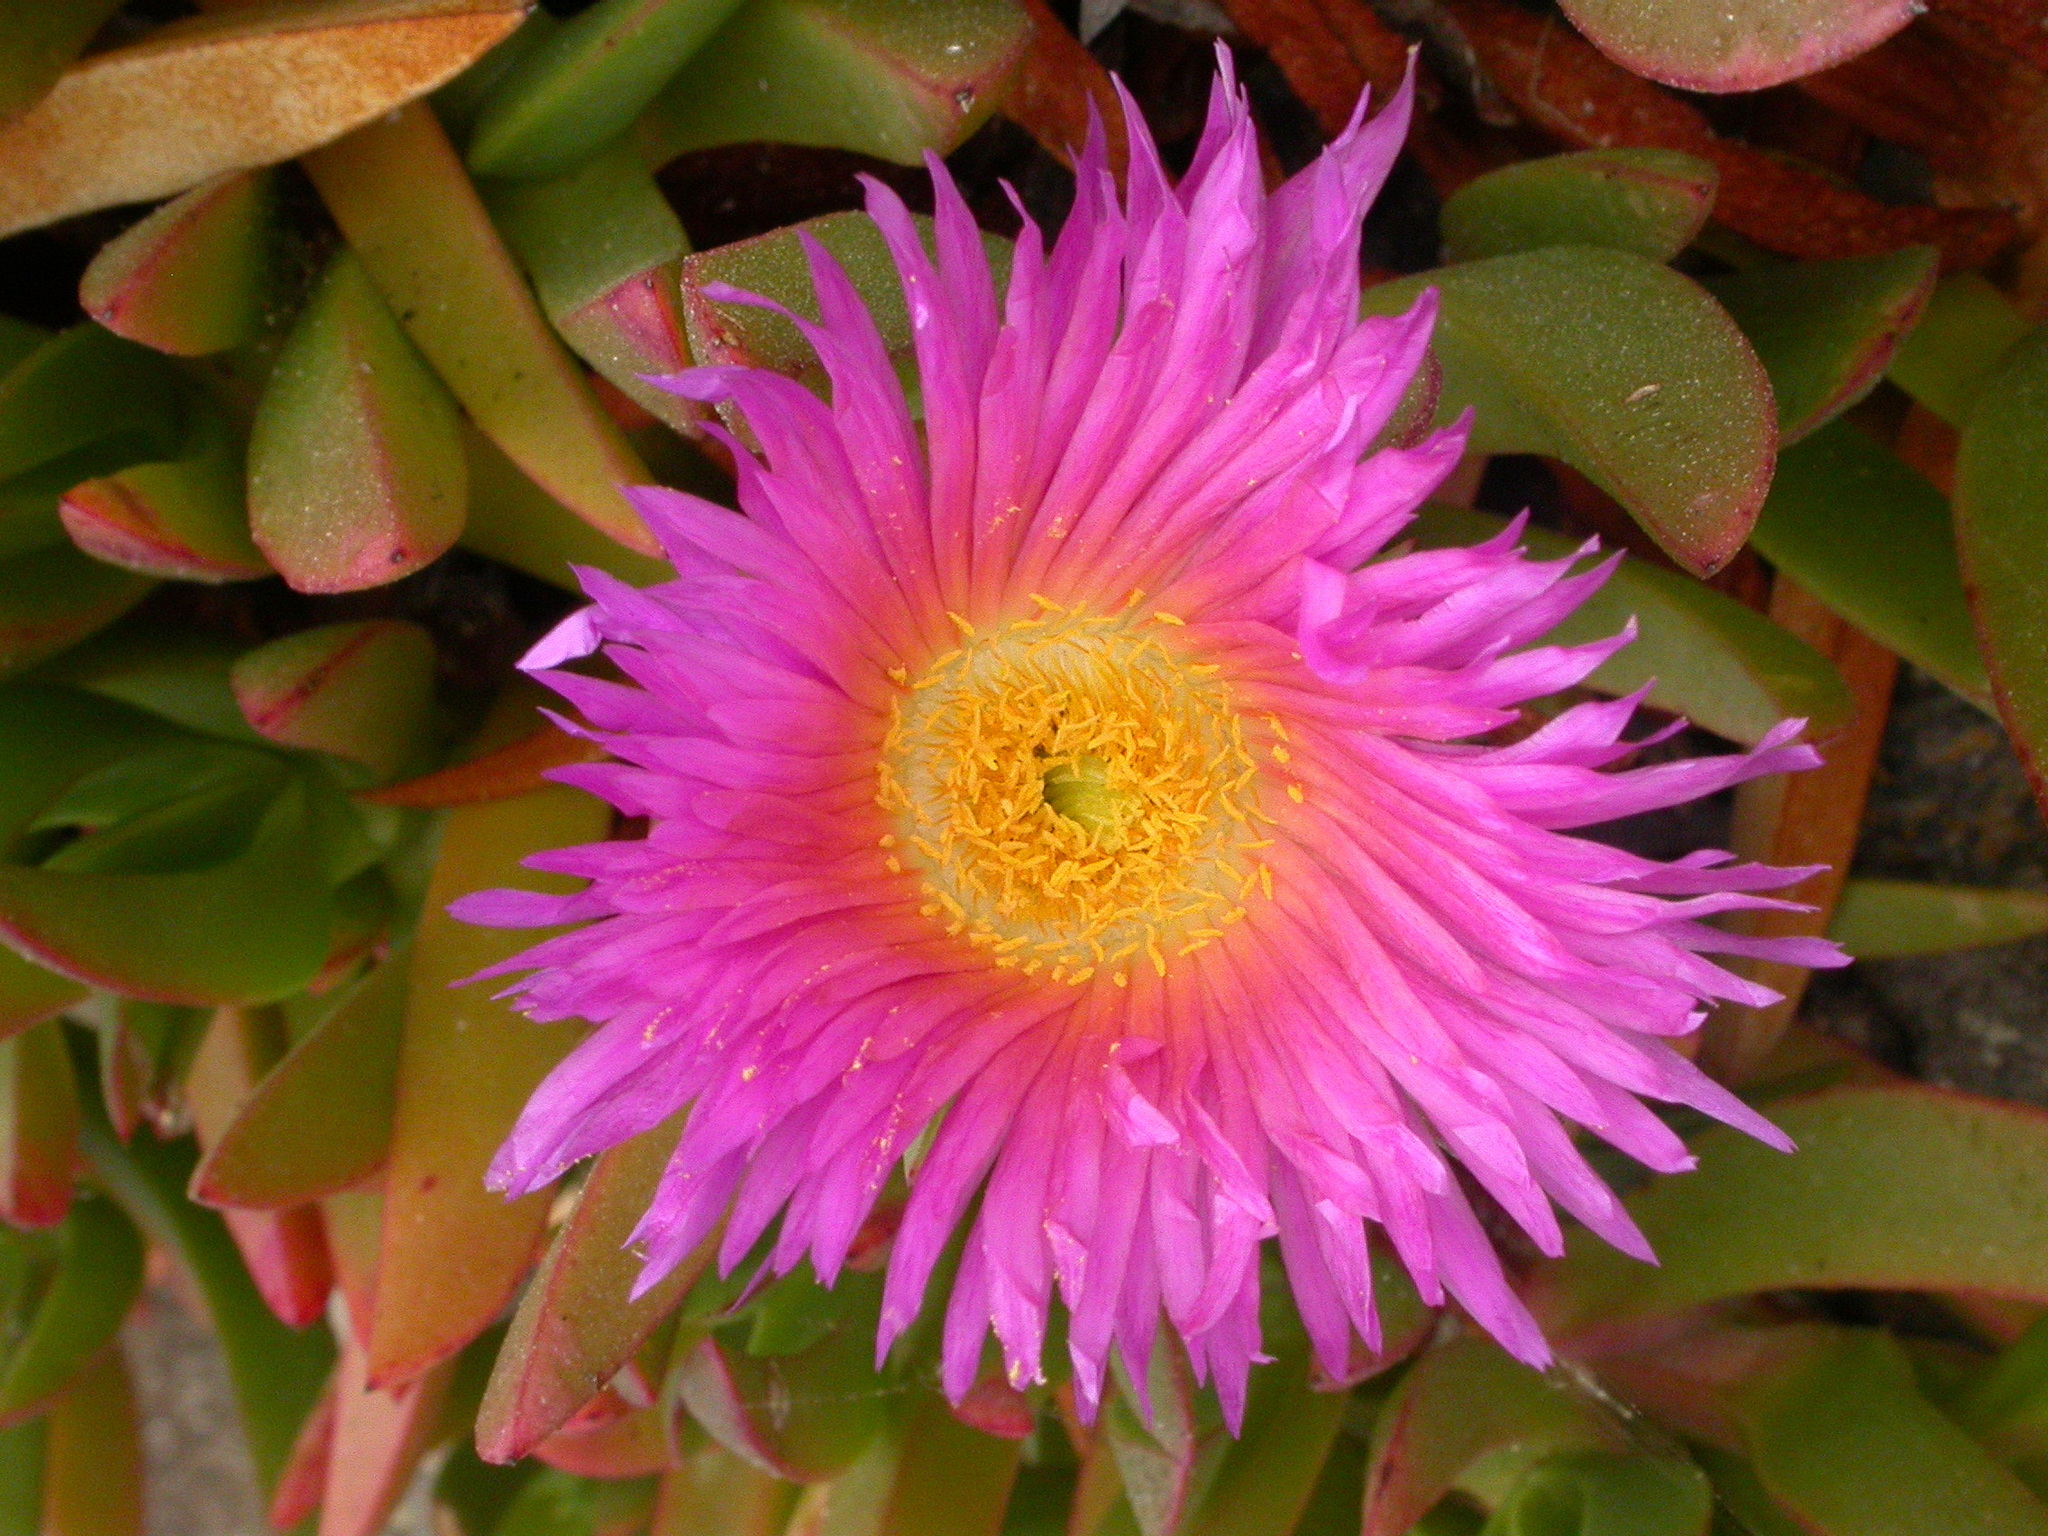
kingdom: Plantae
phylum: Tracheophyta
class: Magnoliopsida
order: Caryophyllales
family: Aizoaceae
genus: Carpobrotus
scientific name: Carpobrotus chilensis
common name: Sea fig
